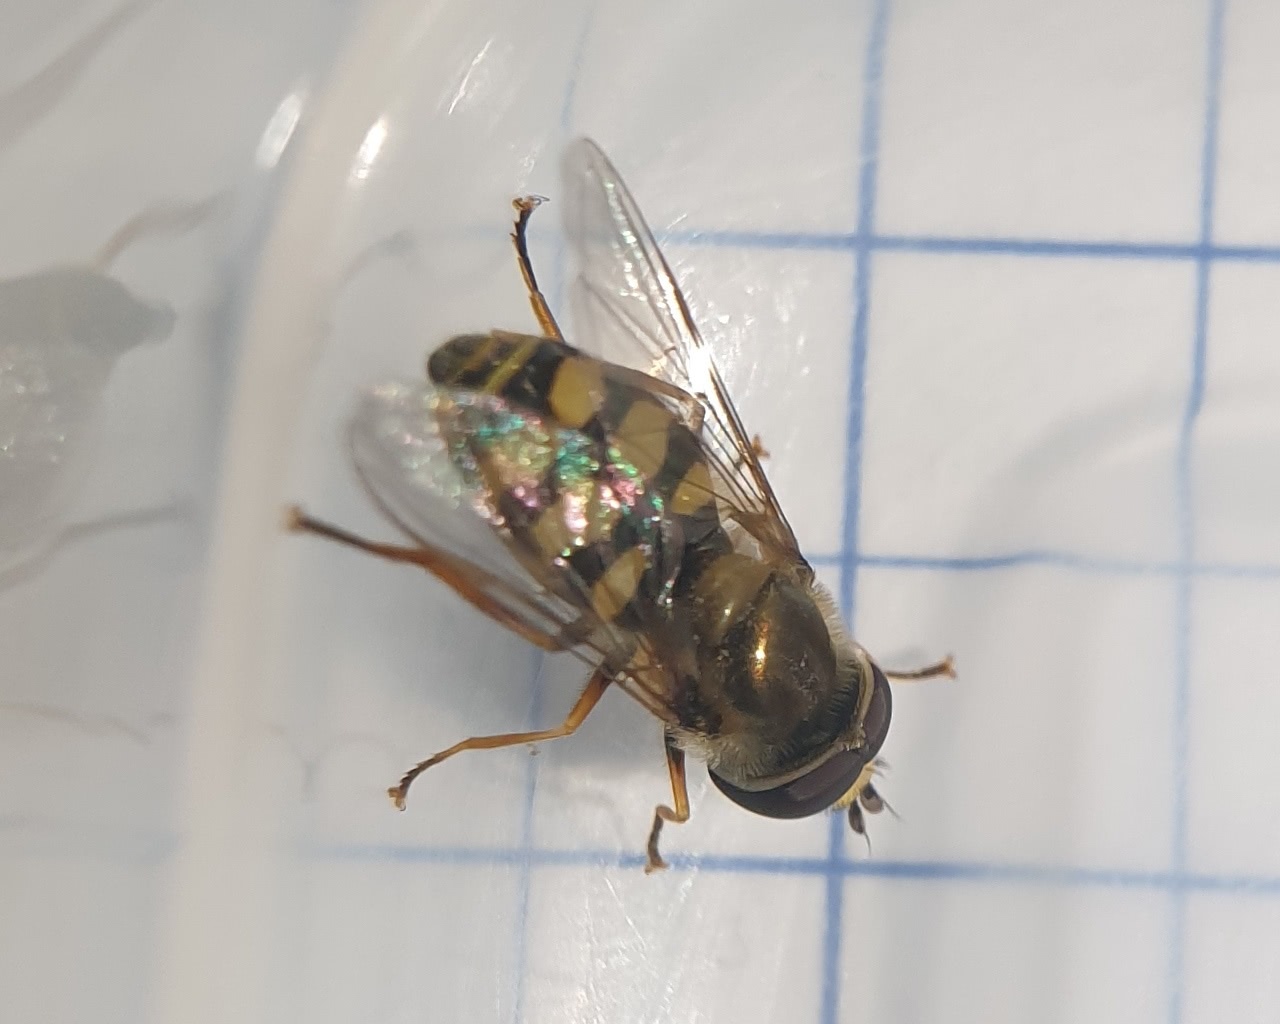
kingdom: Animalia
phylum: Arthropoda
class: Insecta
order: Diptera
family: Syrphidae
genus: Eupeodes
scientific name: Eupeodes corollae
